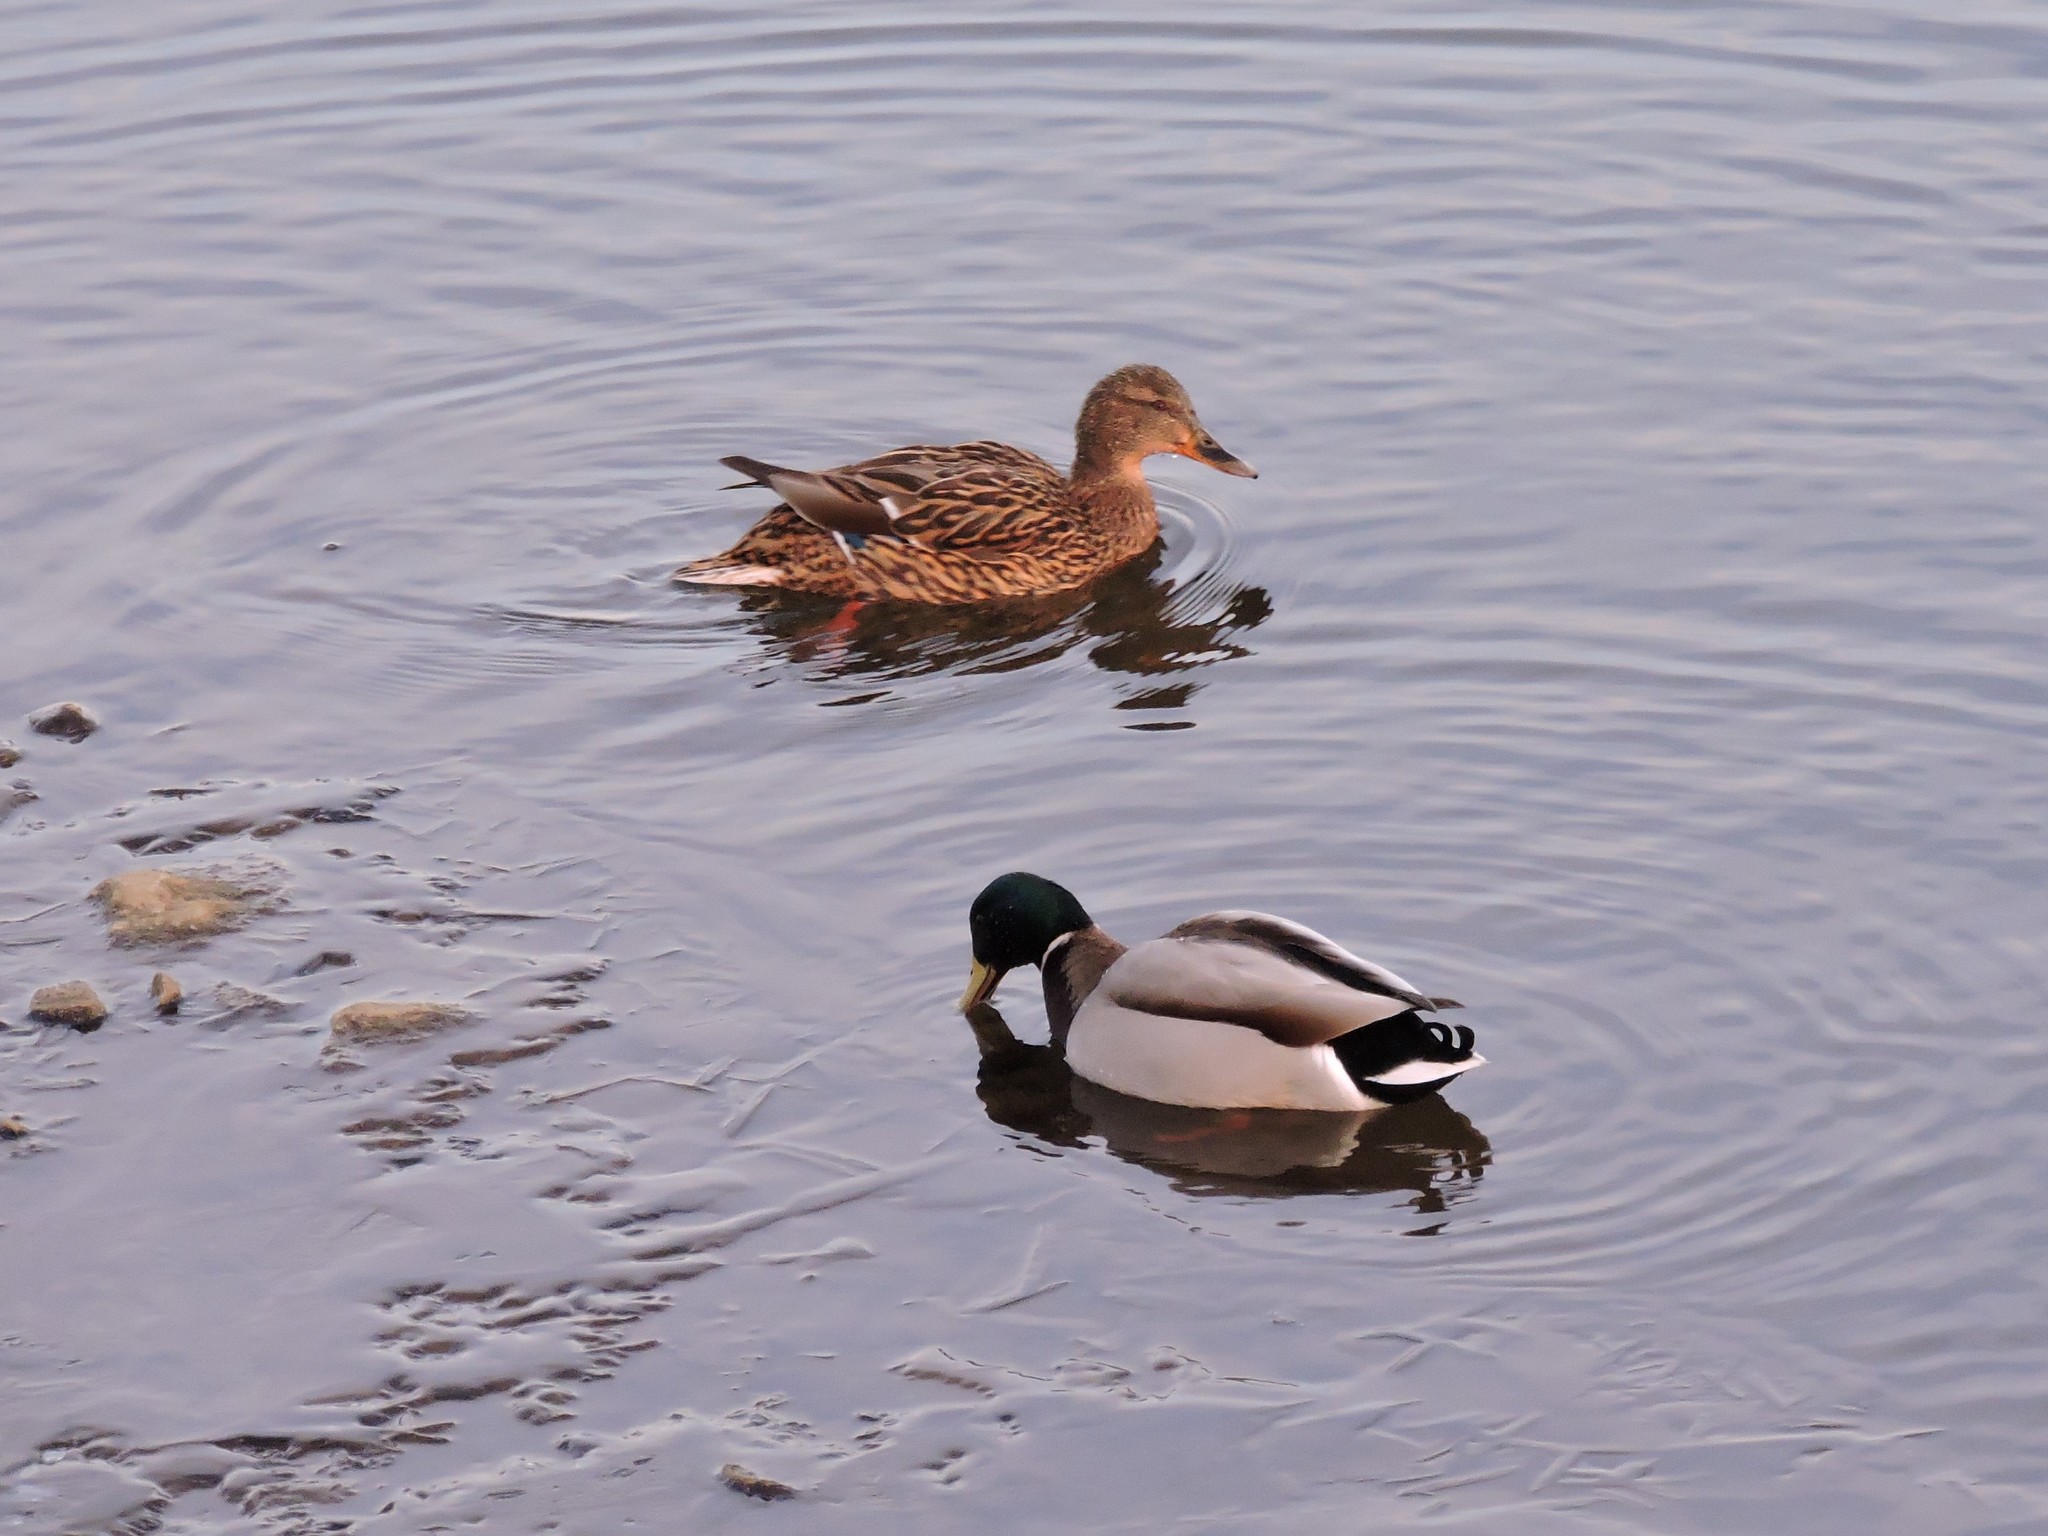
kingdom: Animalia
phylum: Chordata
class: Aves
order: Anseriformes
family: Anatidae
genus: Anas
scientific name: Anas platyrhynchos
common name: Mallard
